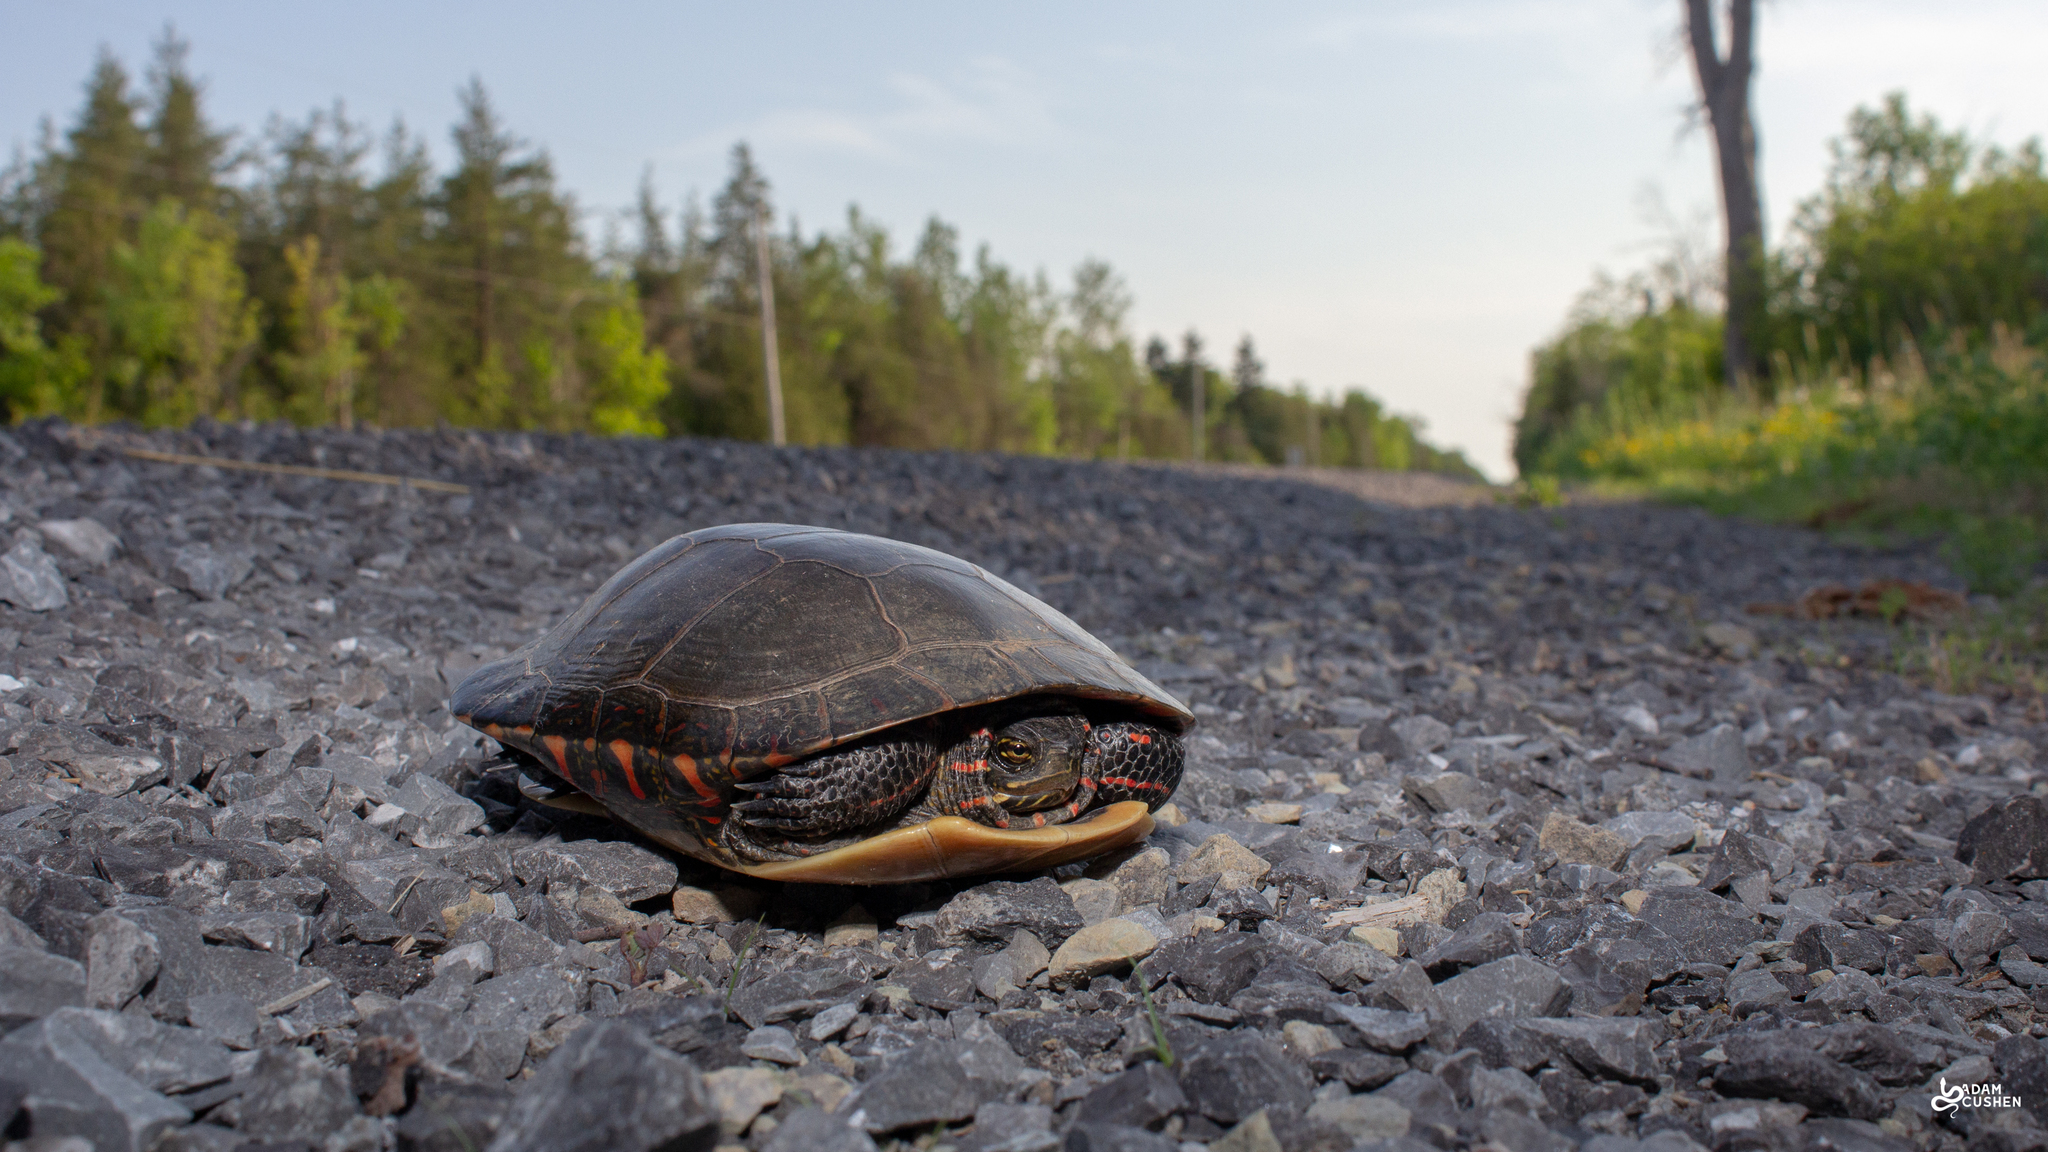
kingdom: Animalia
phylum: Chordata
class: Testudines
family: Emydidae
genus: Chrysemys
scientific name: Chrysemys picta
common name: Painted turtle
